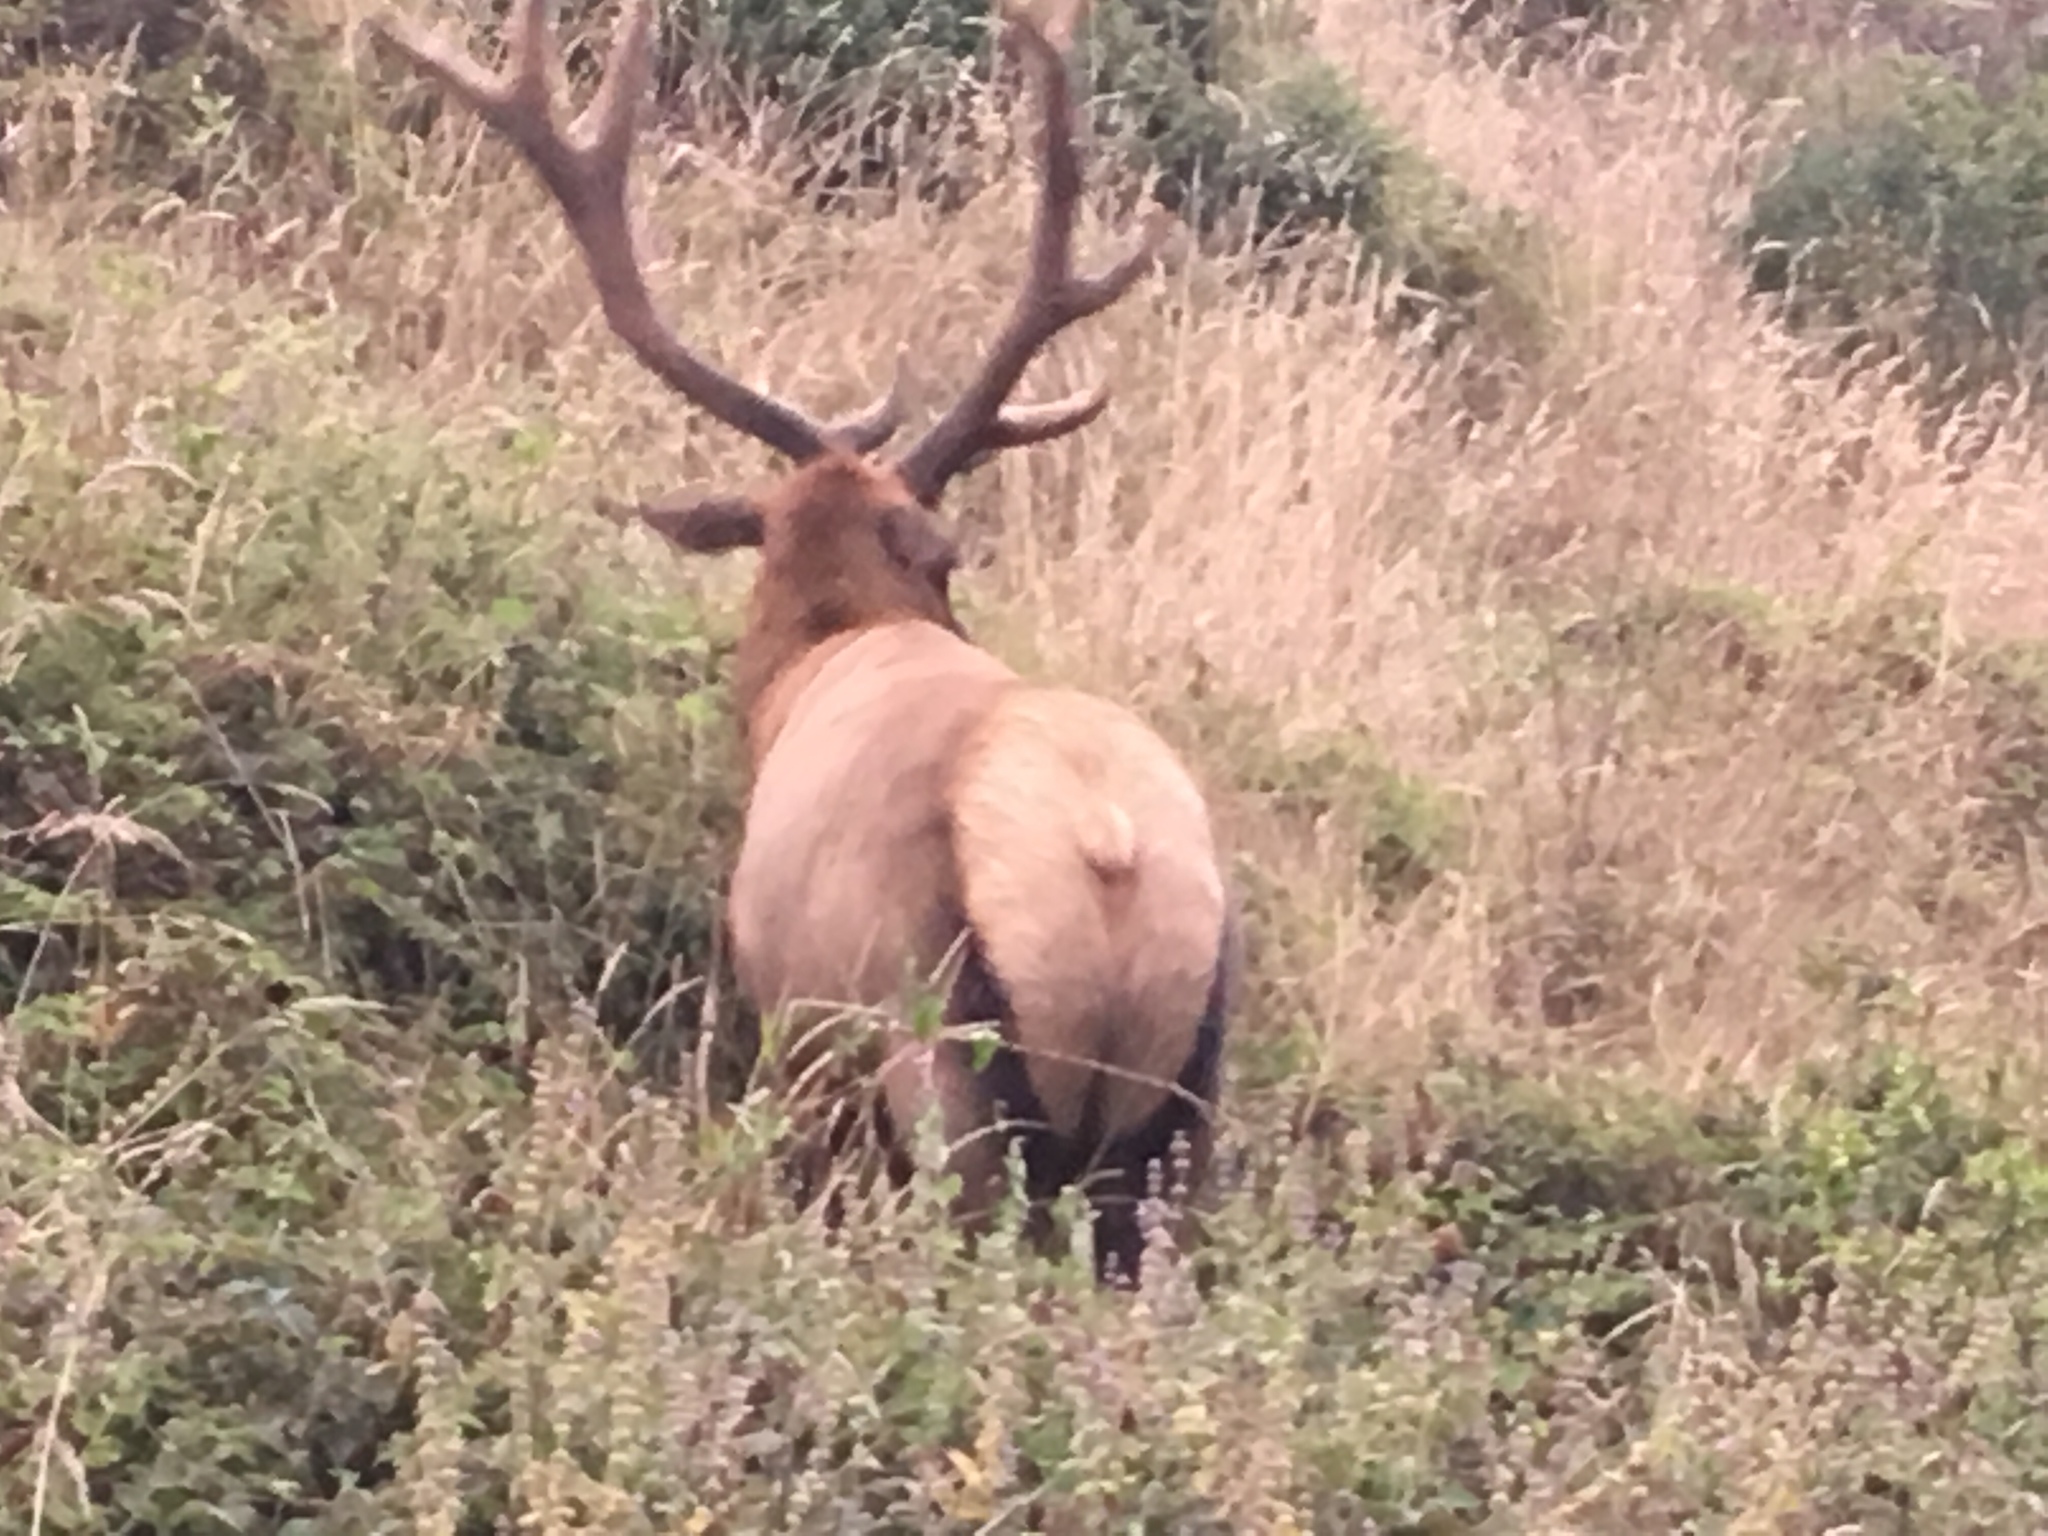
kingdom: Animalia
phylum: Chordata
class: Mammalia
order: Artiodactyla
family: Cervidae
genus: Cervus
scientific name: Cervus elaphus
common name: Red deer
